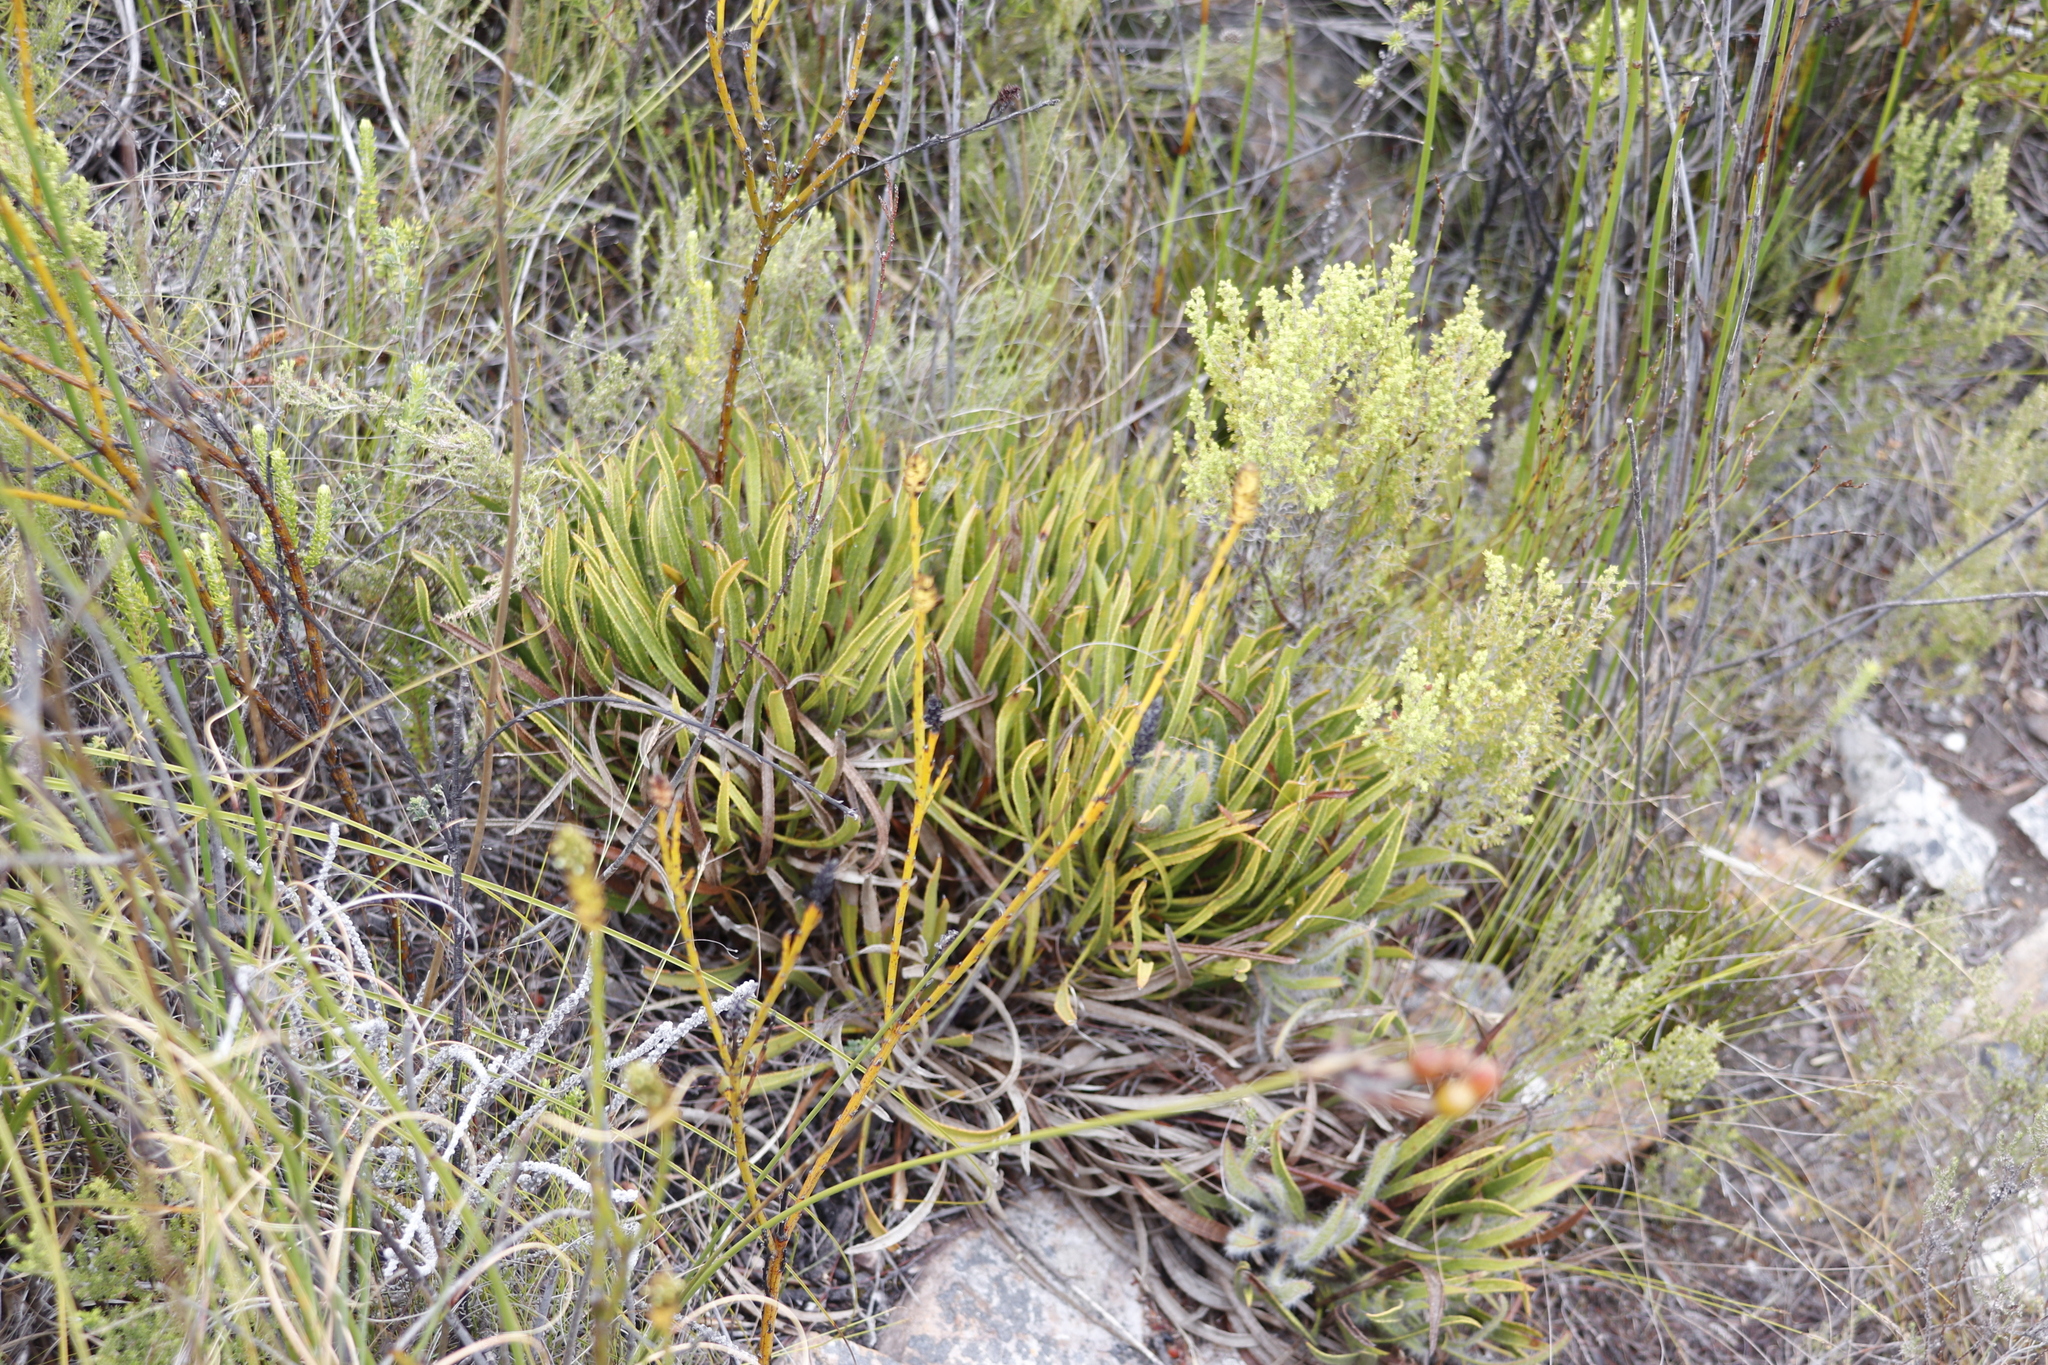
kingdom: Plantae
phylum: Tracheophyta
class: Magnoliopsida
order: Proteales
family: Proteaceae
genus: Protea
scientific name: Protea denticulata
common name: Tooth-leaf sugarbush
